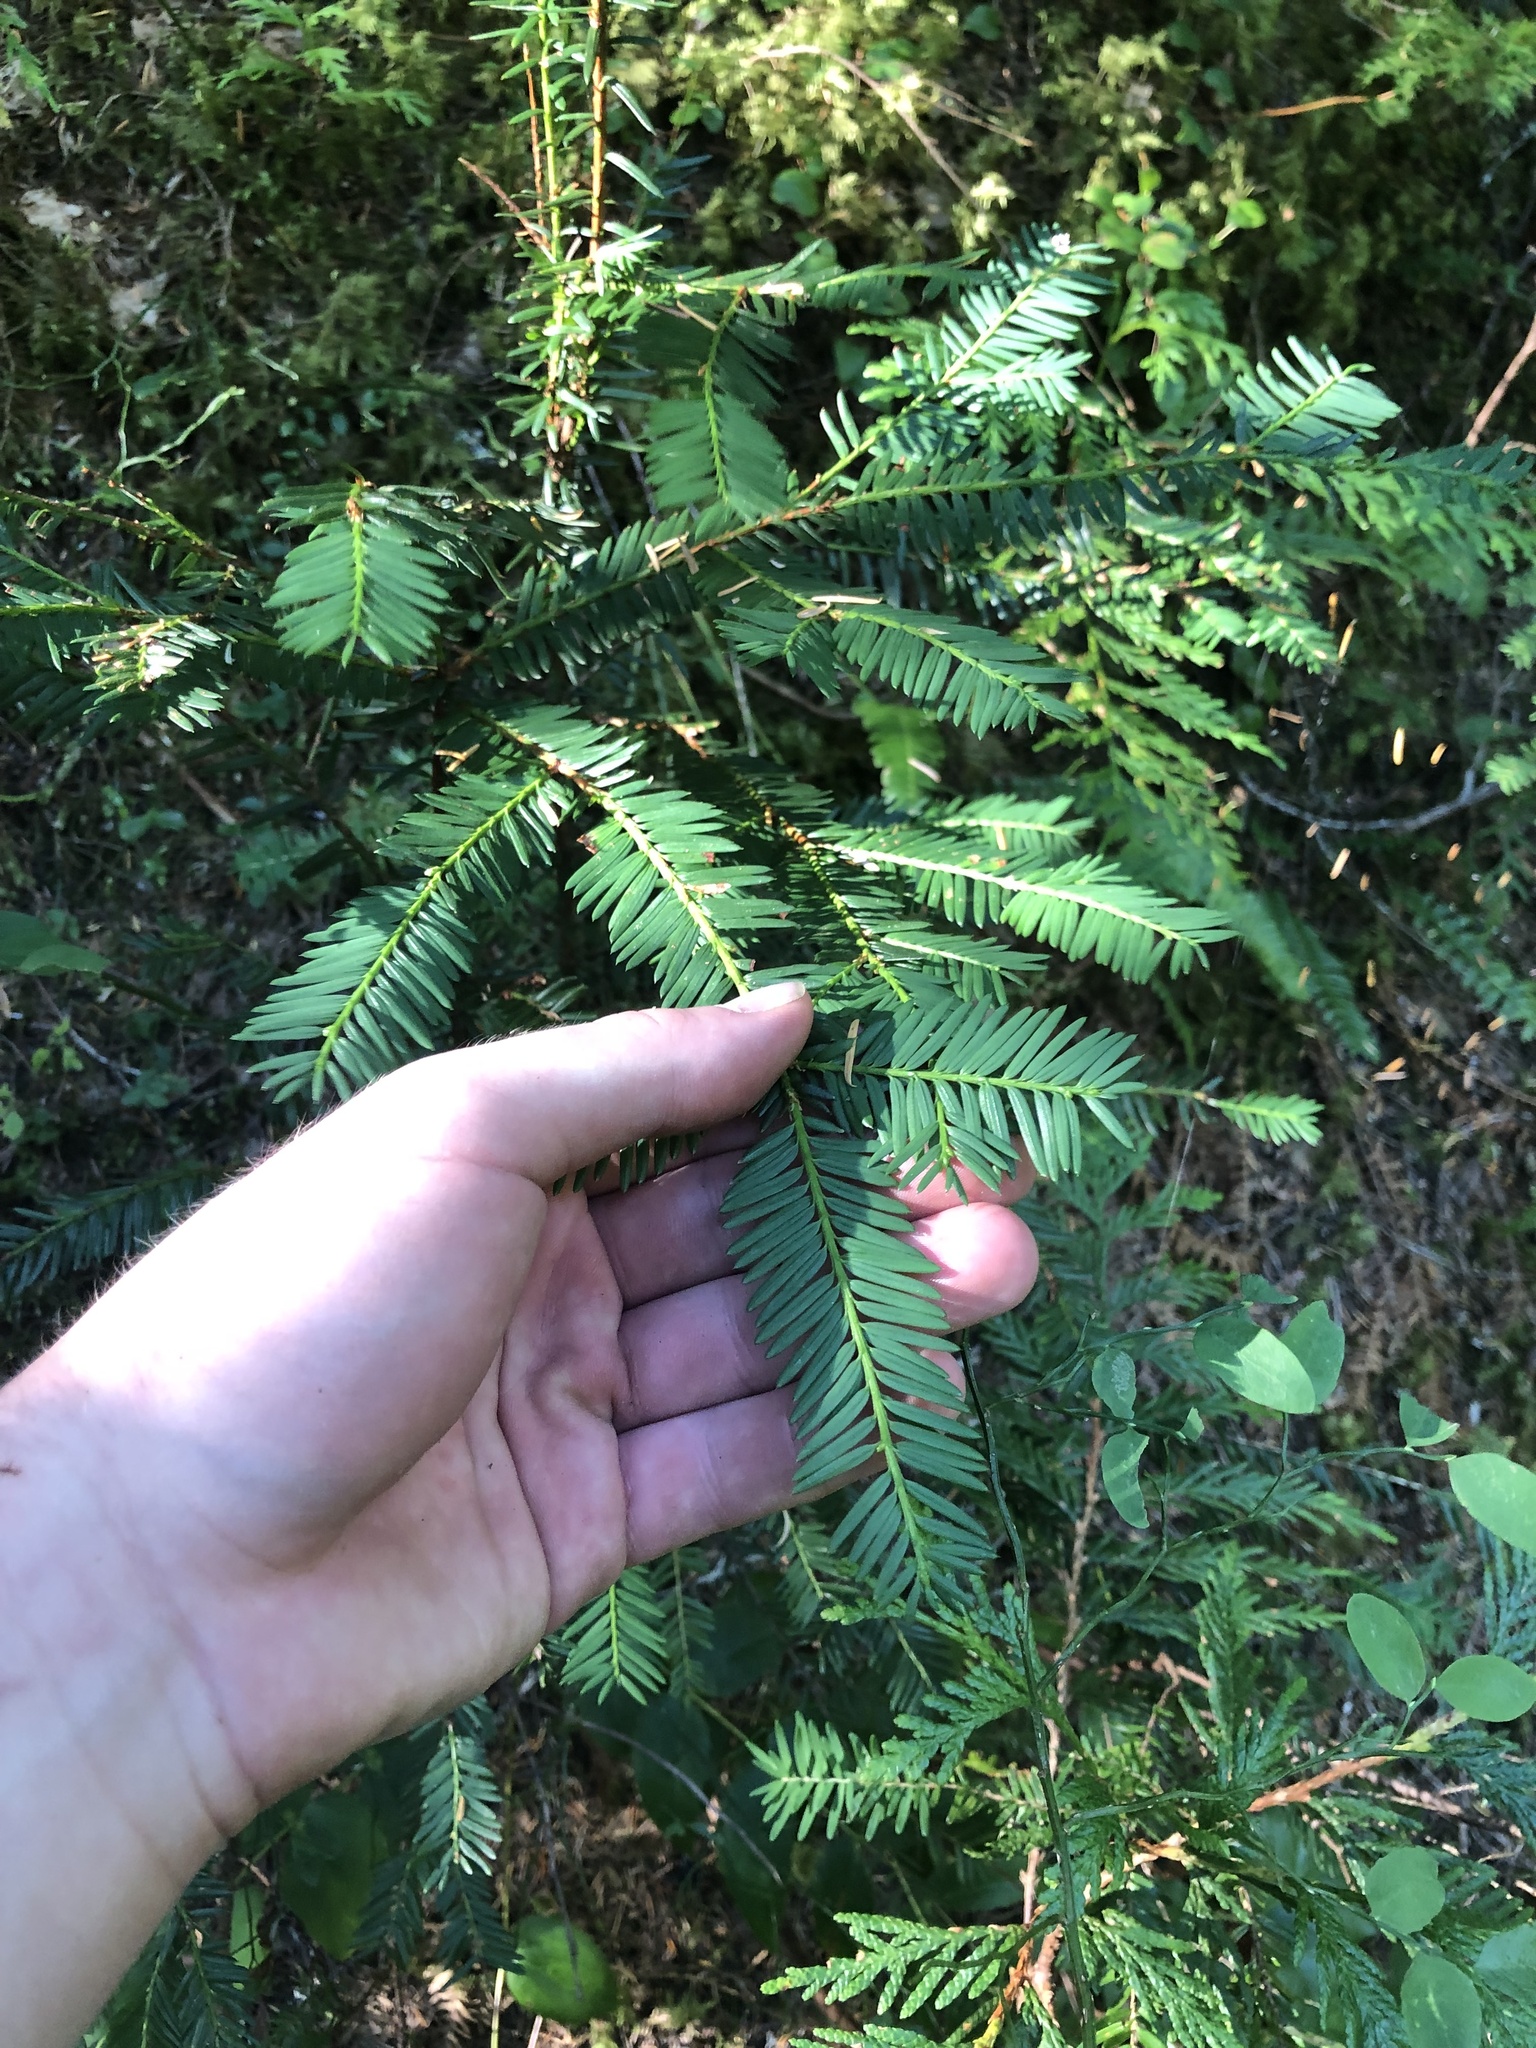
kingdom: Plantae
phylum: Tracheophyta
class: Pinopsida
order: Pinales
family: Taxaceae
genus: Taxus
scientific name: Taxus brevifolia
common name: Pacific yew
